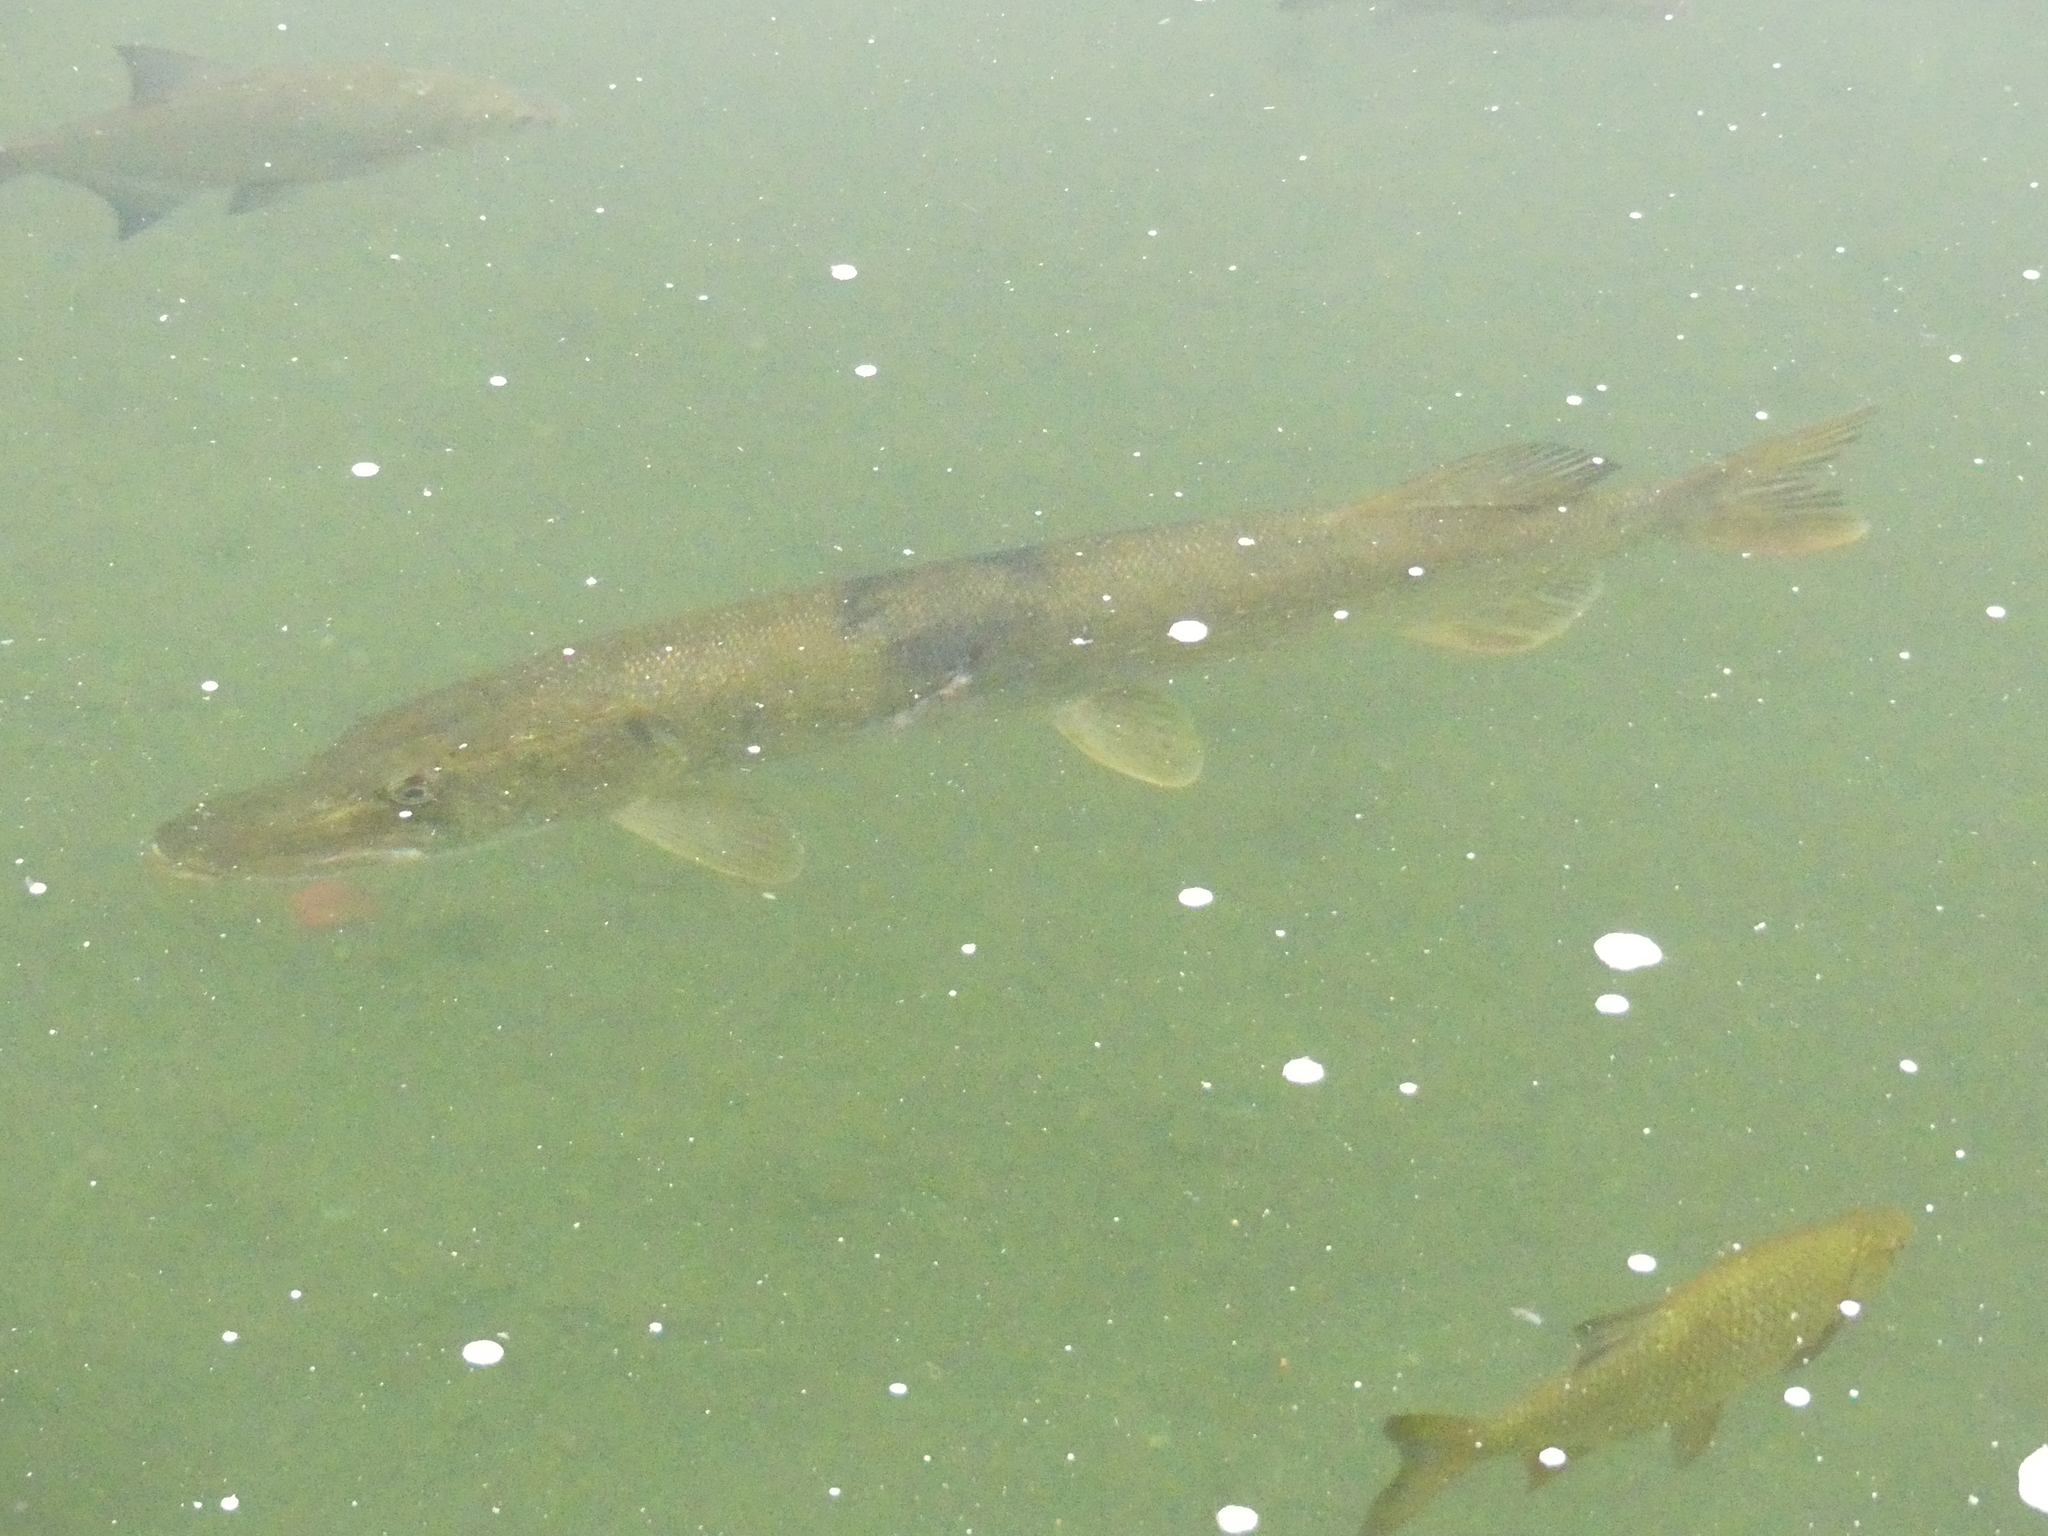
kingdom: Animalia
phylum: Chordata
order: Esociformes
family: Esocidae
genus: Esox
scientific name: Esox lucius
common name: Northern pike
